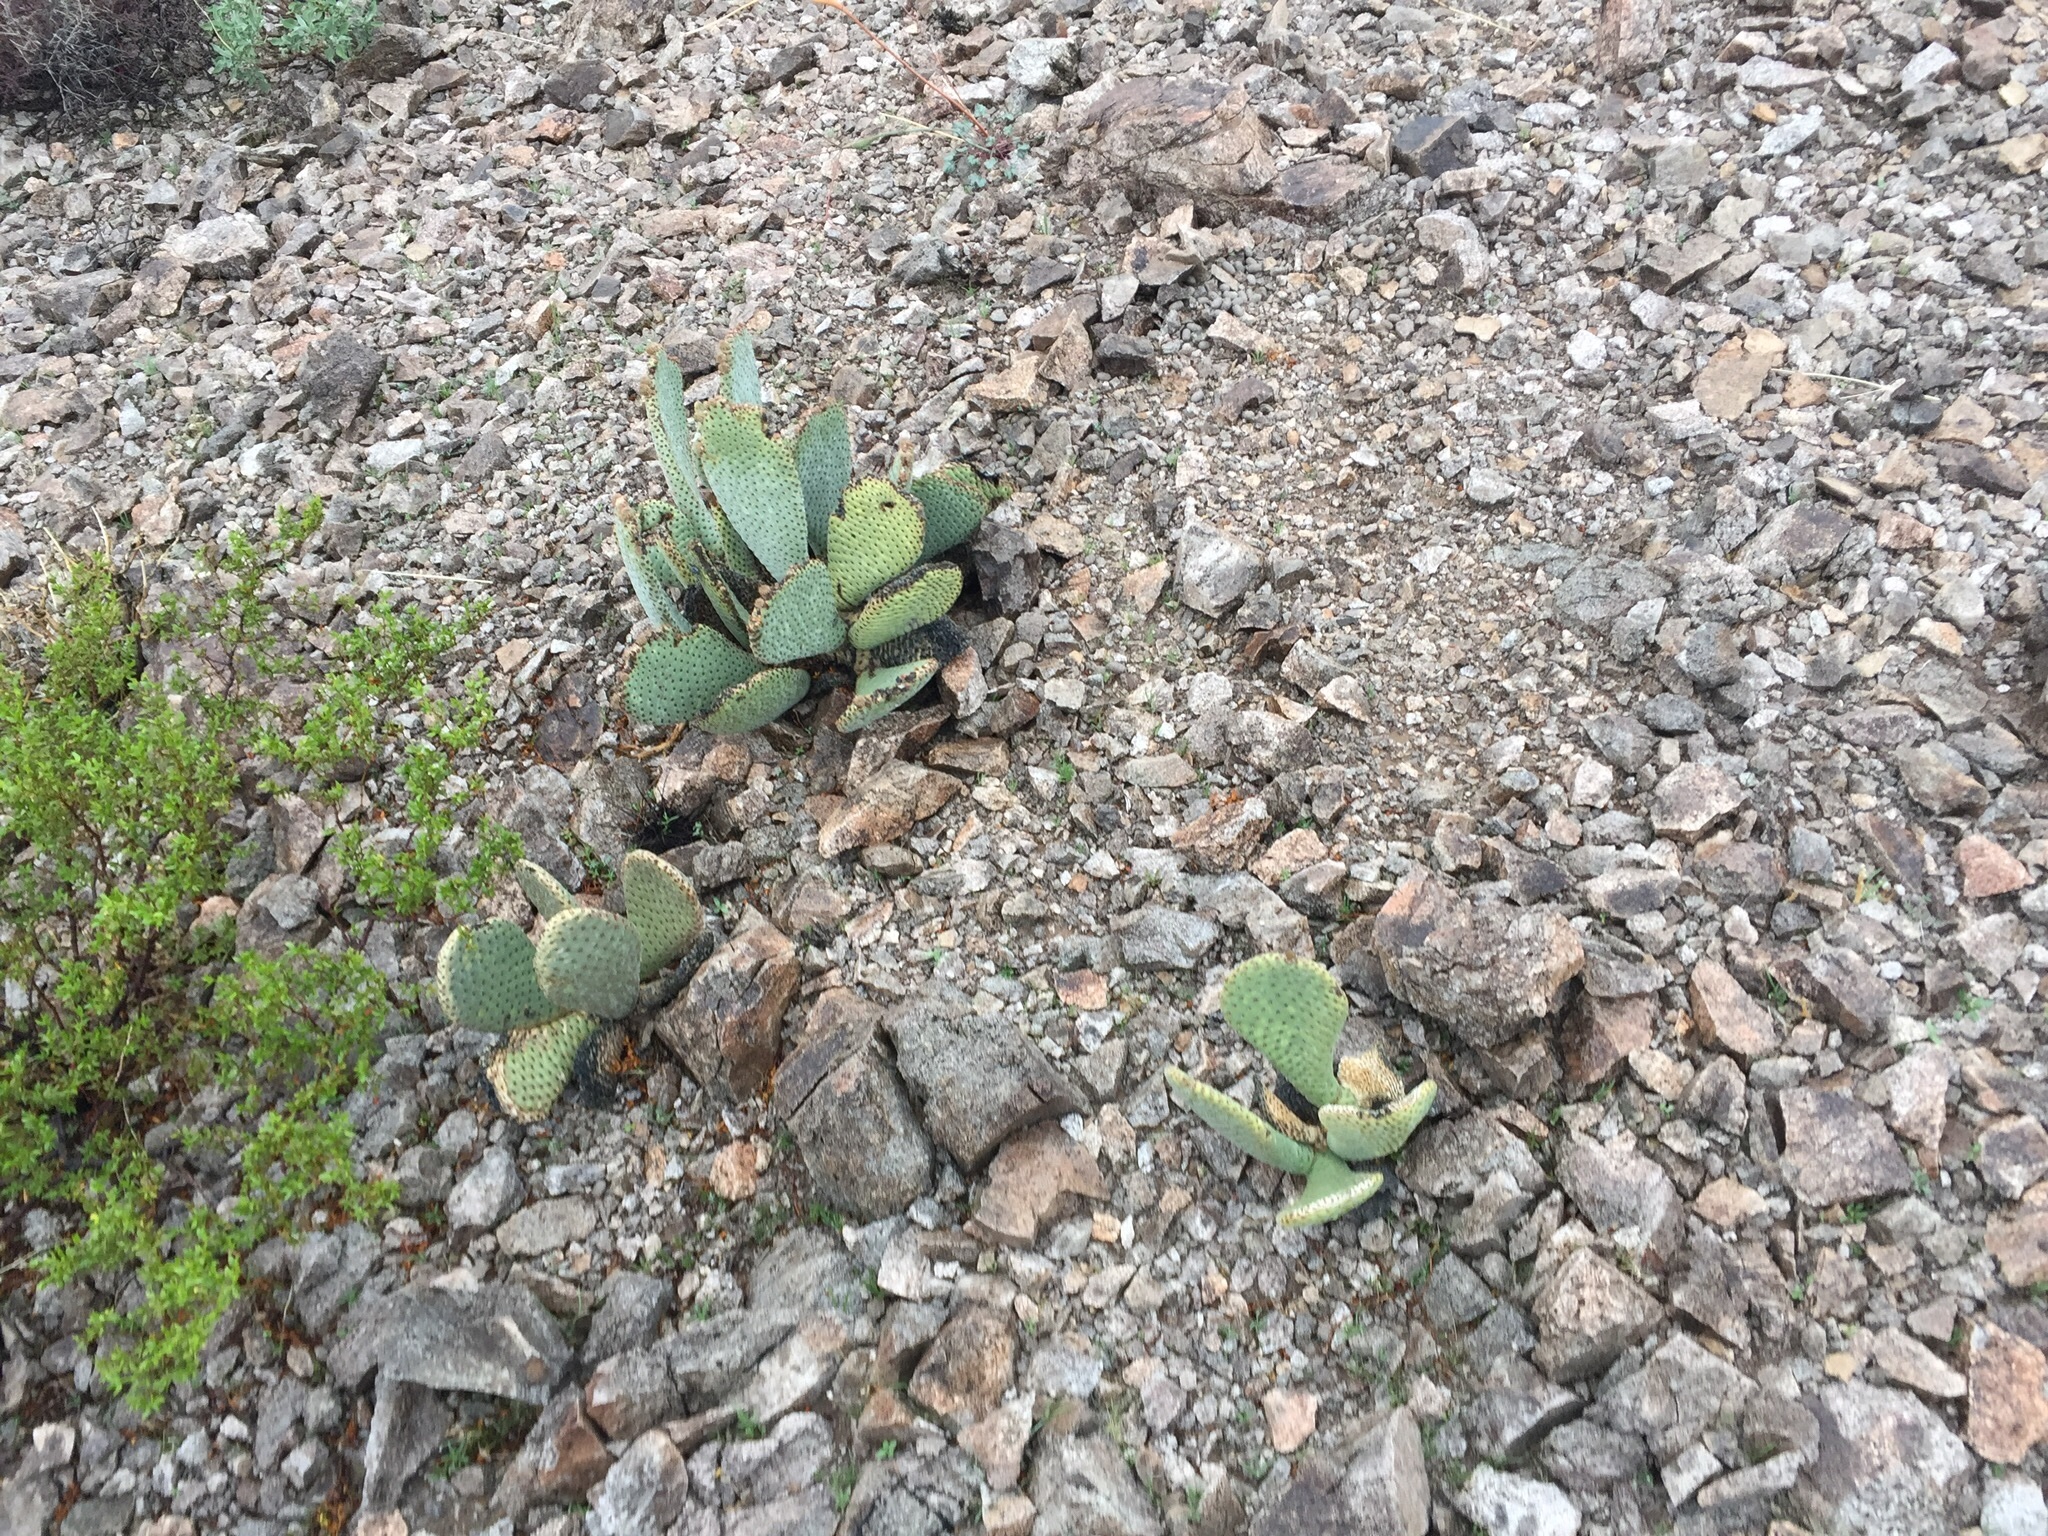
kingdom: Plantae
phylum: Tracheophyta
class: Magnoliopsida
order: Caryophyllales
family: Cactaceae
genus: Opuntia
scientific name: Opuntia basilaris
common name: Beavertail prickly-pear
